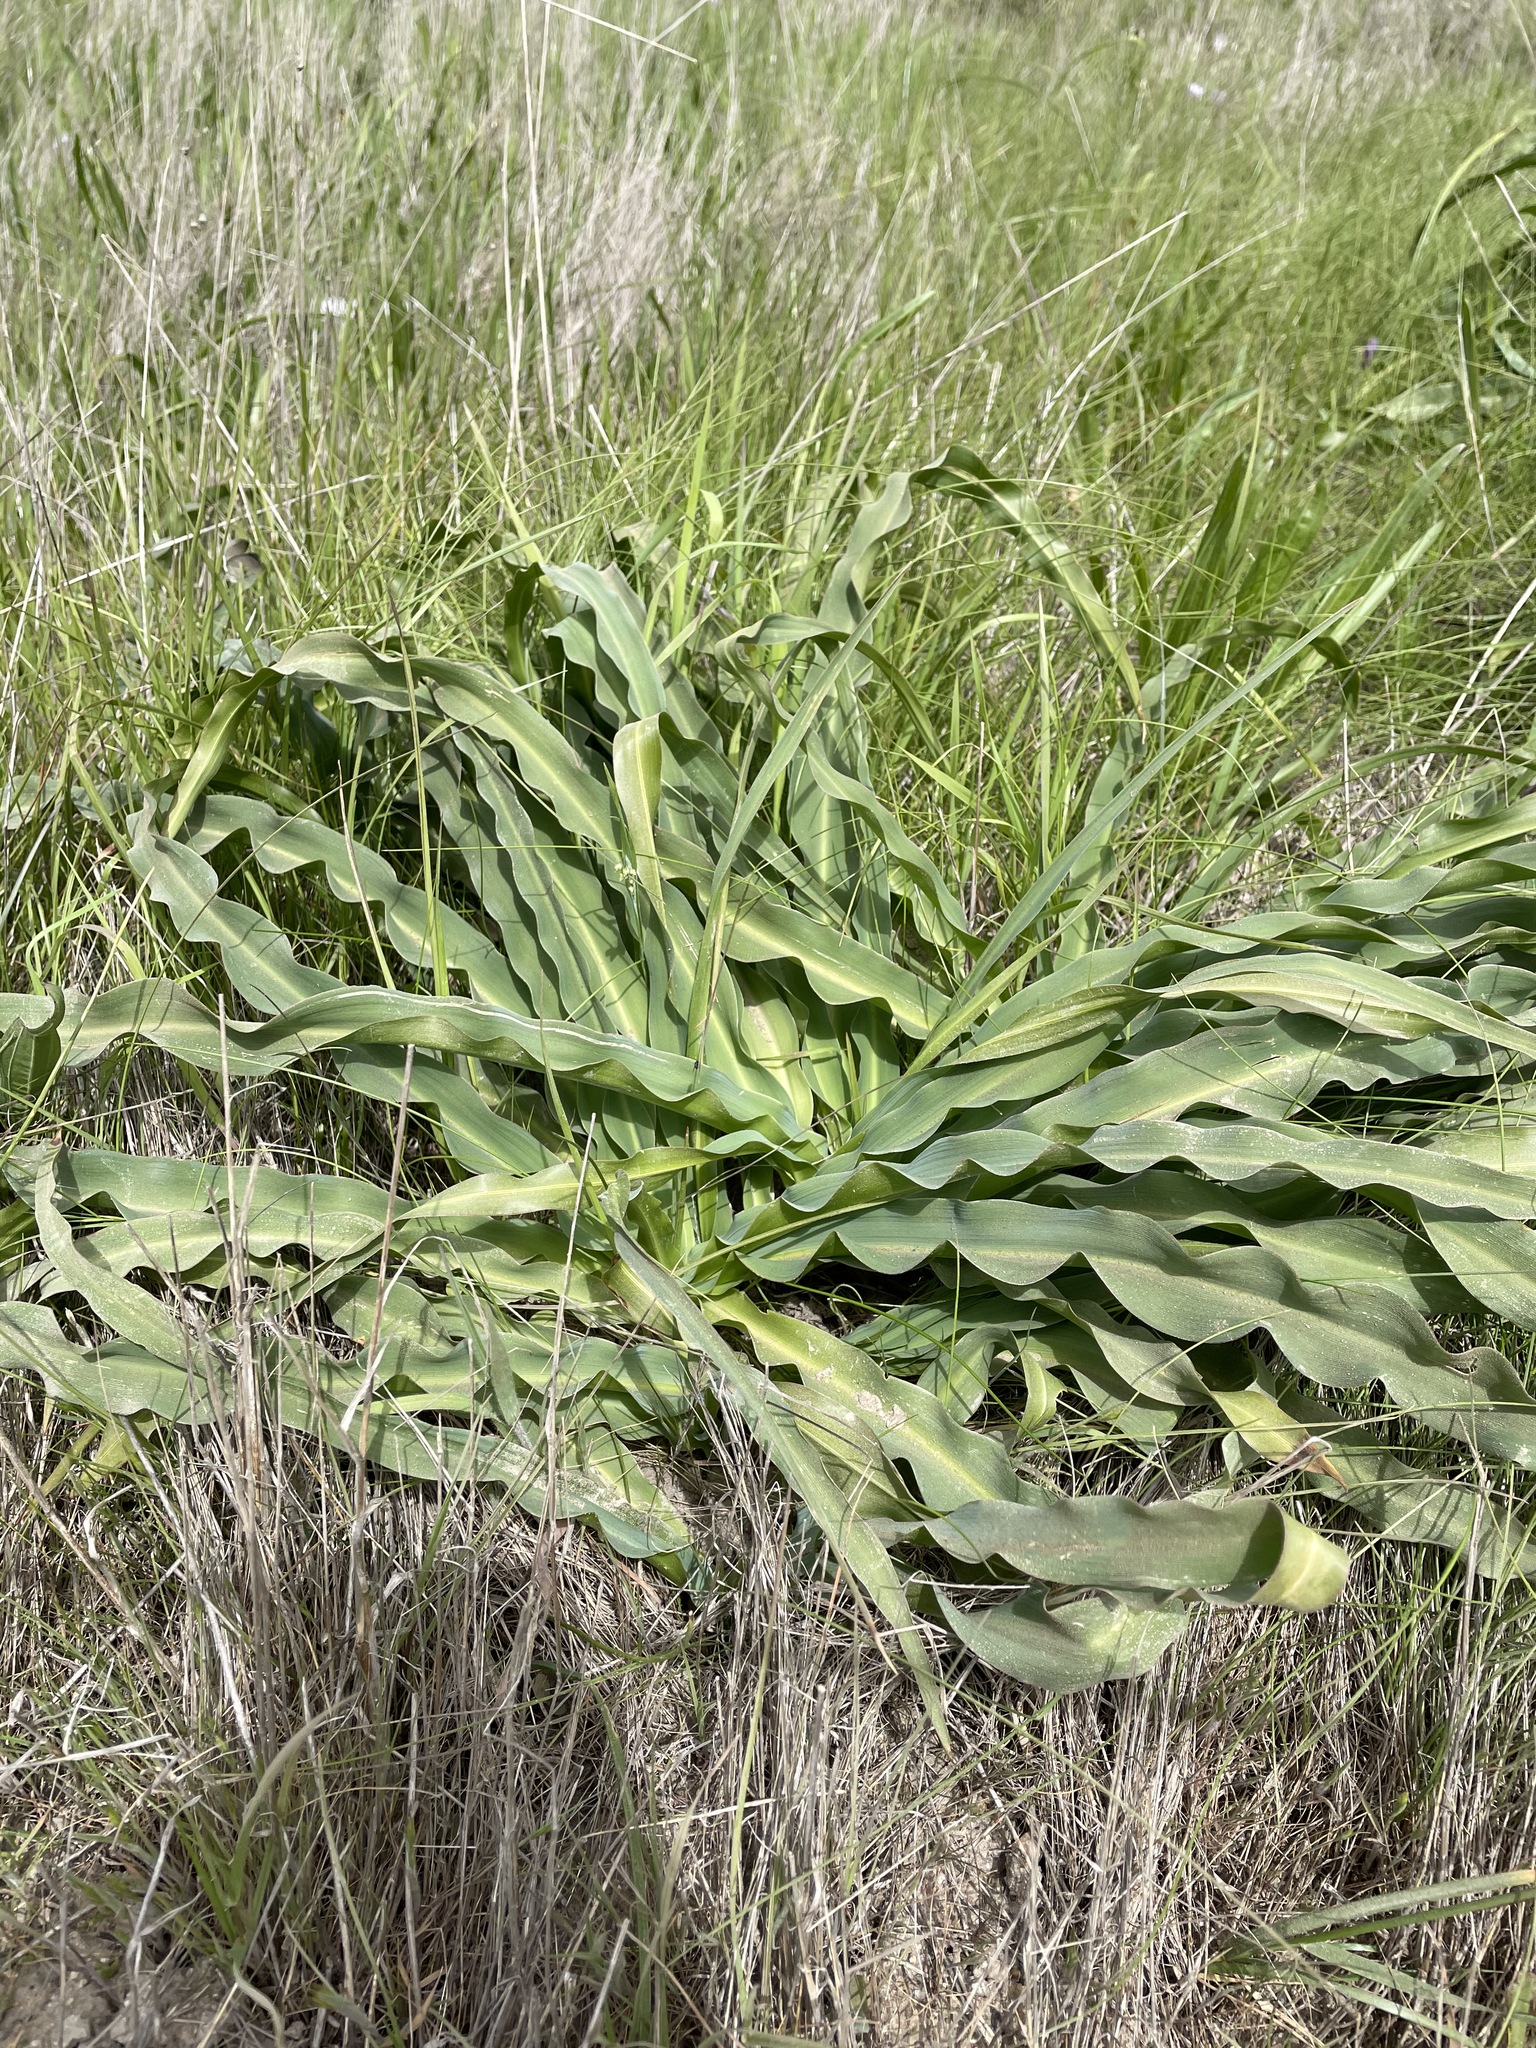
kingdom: Plantae
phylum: Tracheophyta
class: Liliopsida
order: Asparagales
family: Asparagaceae
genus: Chlorogalum
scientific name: Chlorogalum pomeridianum
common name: Amole
